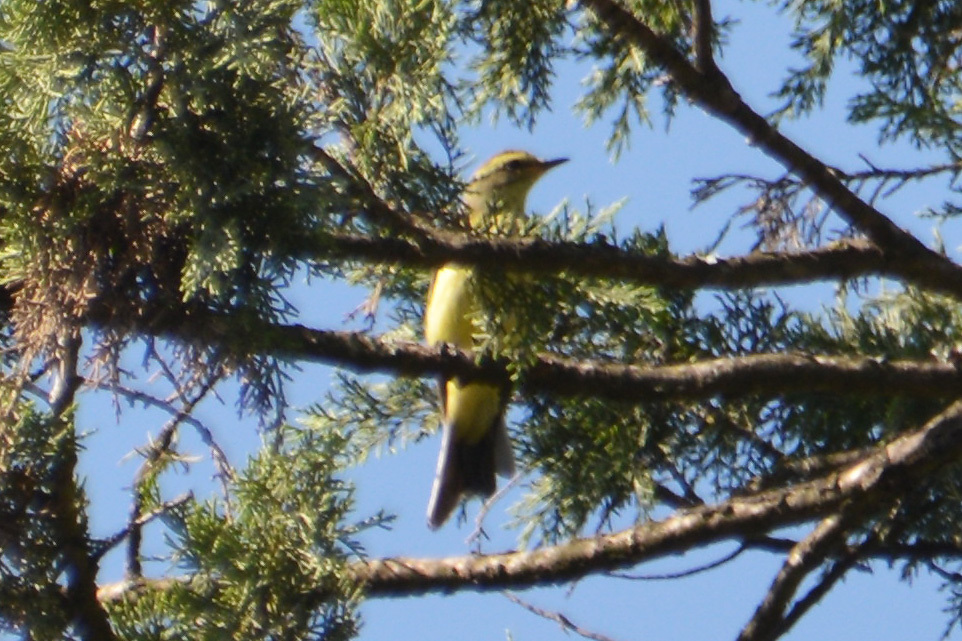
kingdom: Animalia
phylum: Chordata
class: Aves
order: Passeriformes
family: Tyrannidae
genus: Satrapa
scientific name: Satrapa icterophrys
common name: Yellow-browed tyrant
